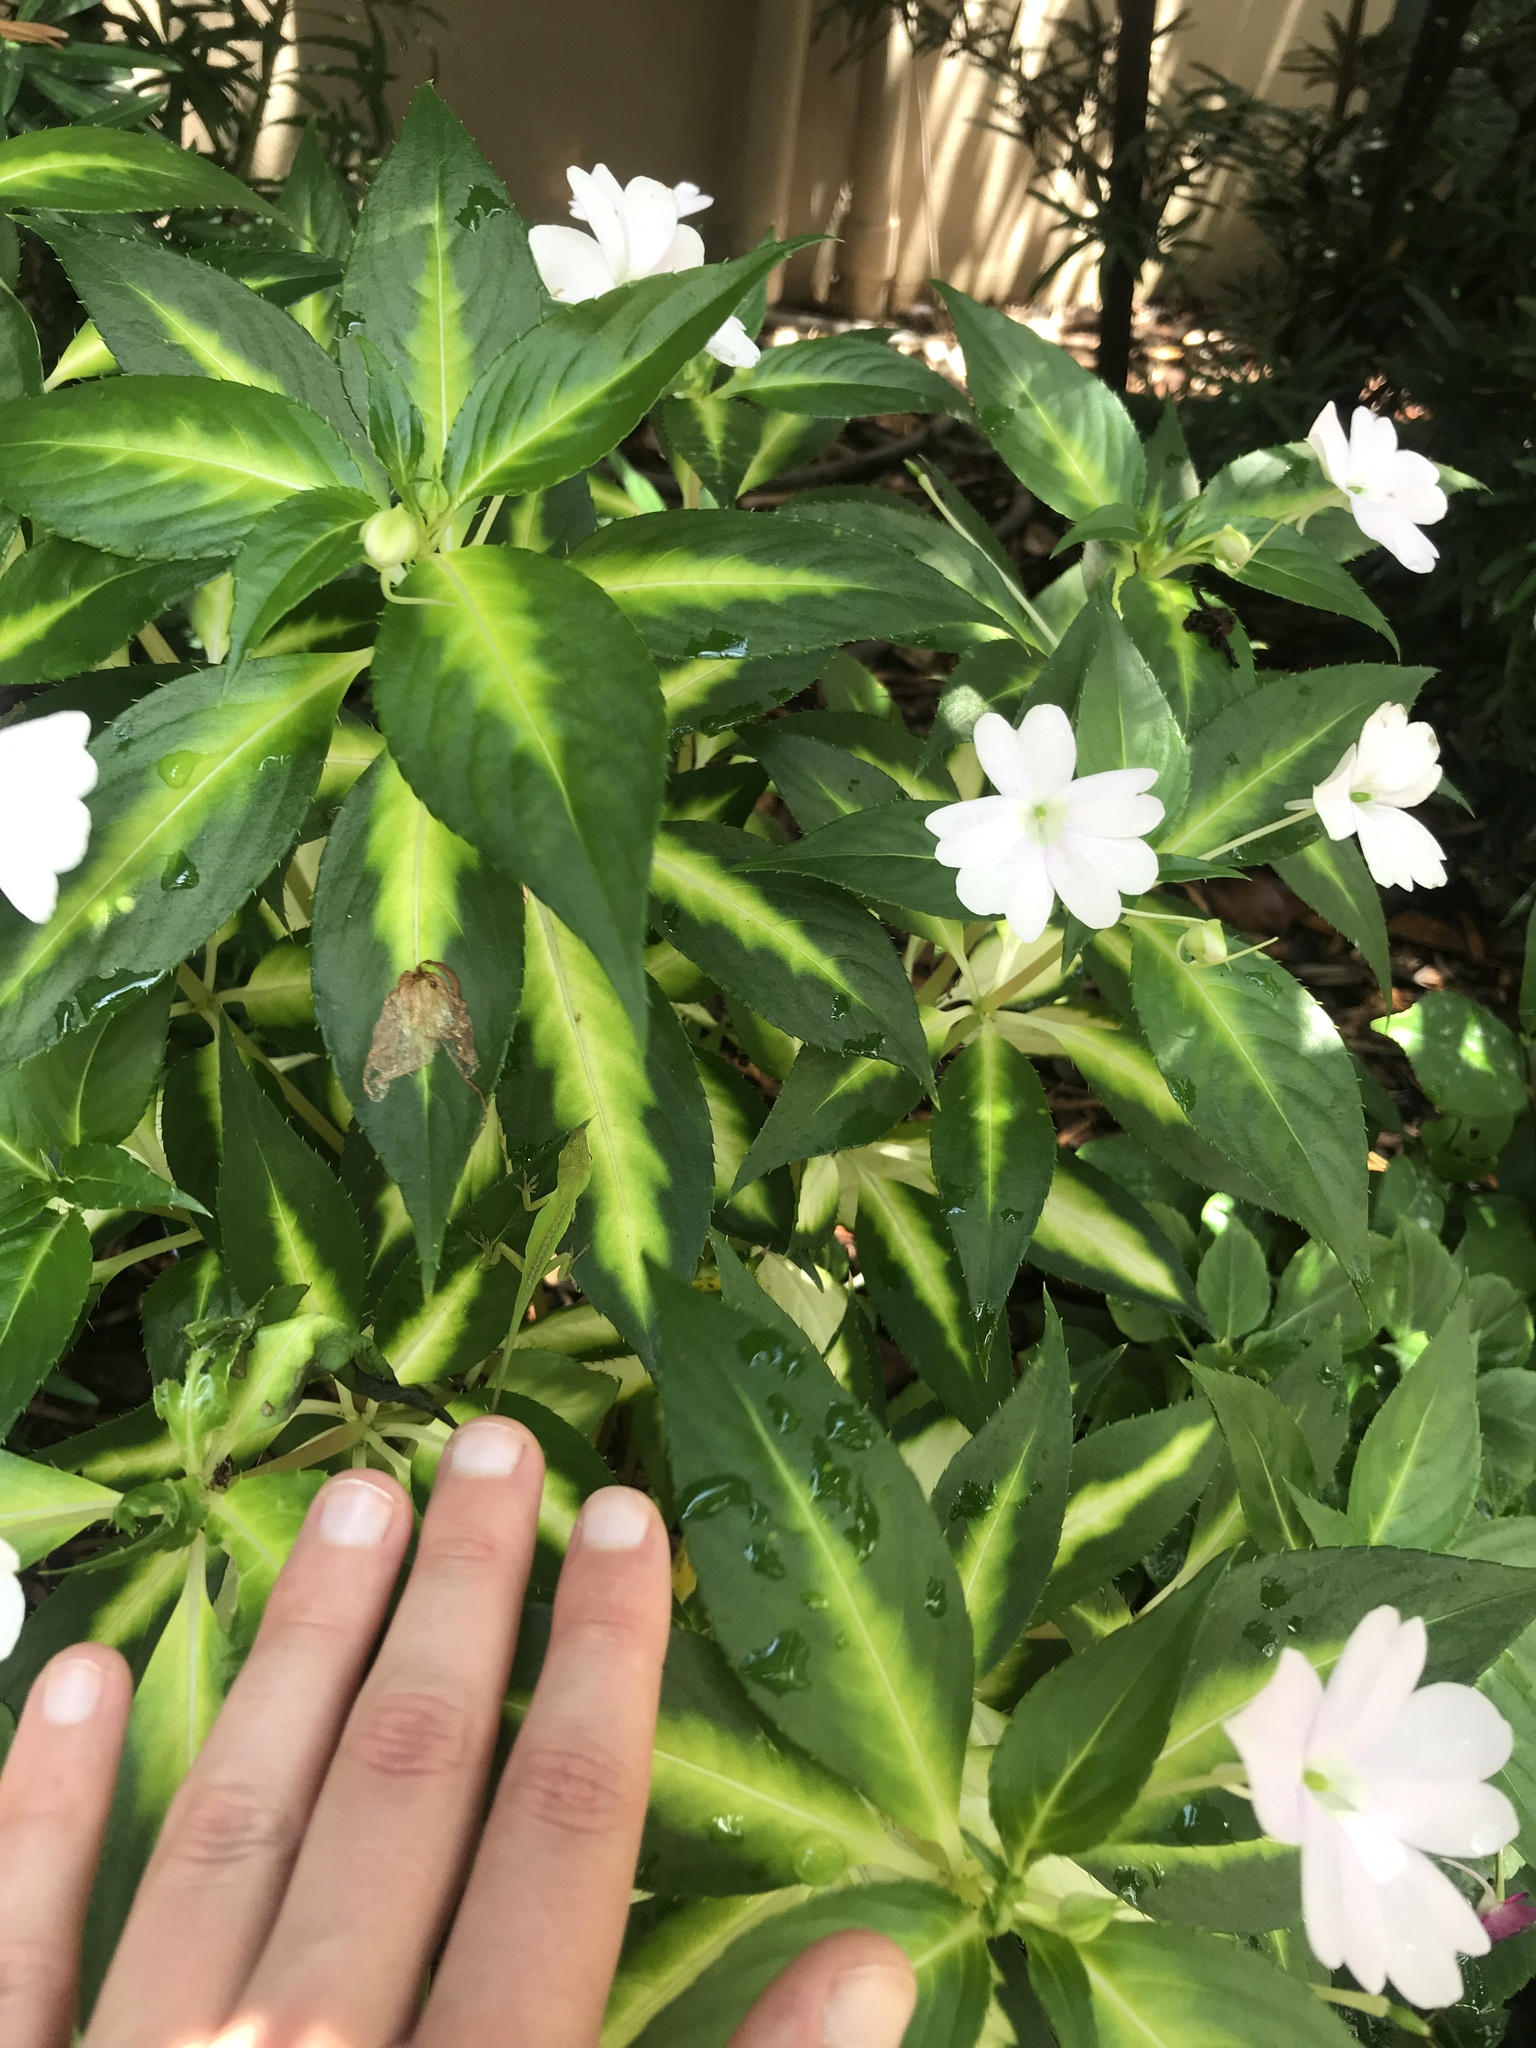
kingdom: Animalia
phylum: Chordata
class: Squamata
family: Dactyloidae
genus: Anolis
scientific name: Anolis carolinensis
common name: Green anole
